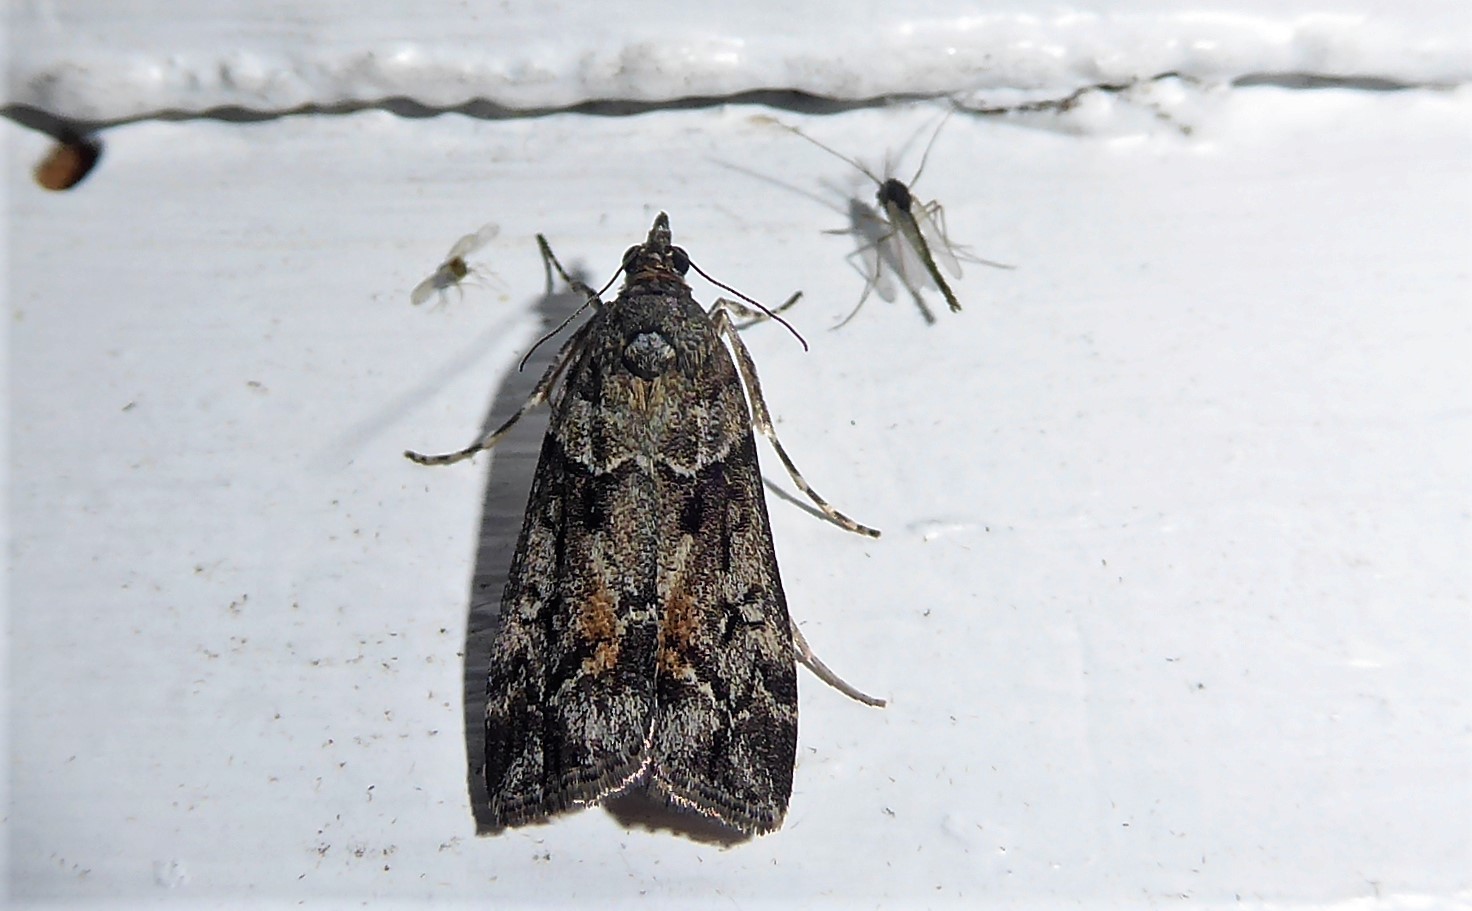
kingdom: Animalia
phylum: Arthropoda
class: Insecta
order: Lepidoptera
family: Crambidae
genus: Eudonia
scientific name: Eudonia submarginalis
